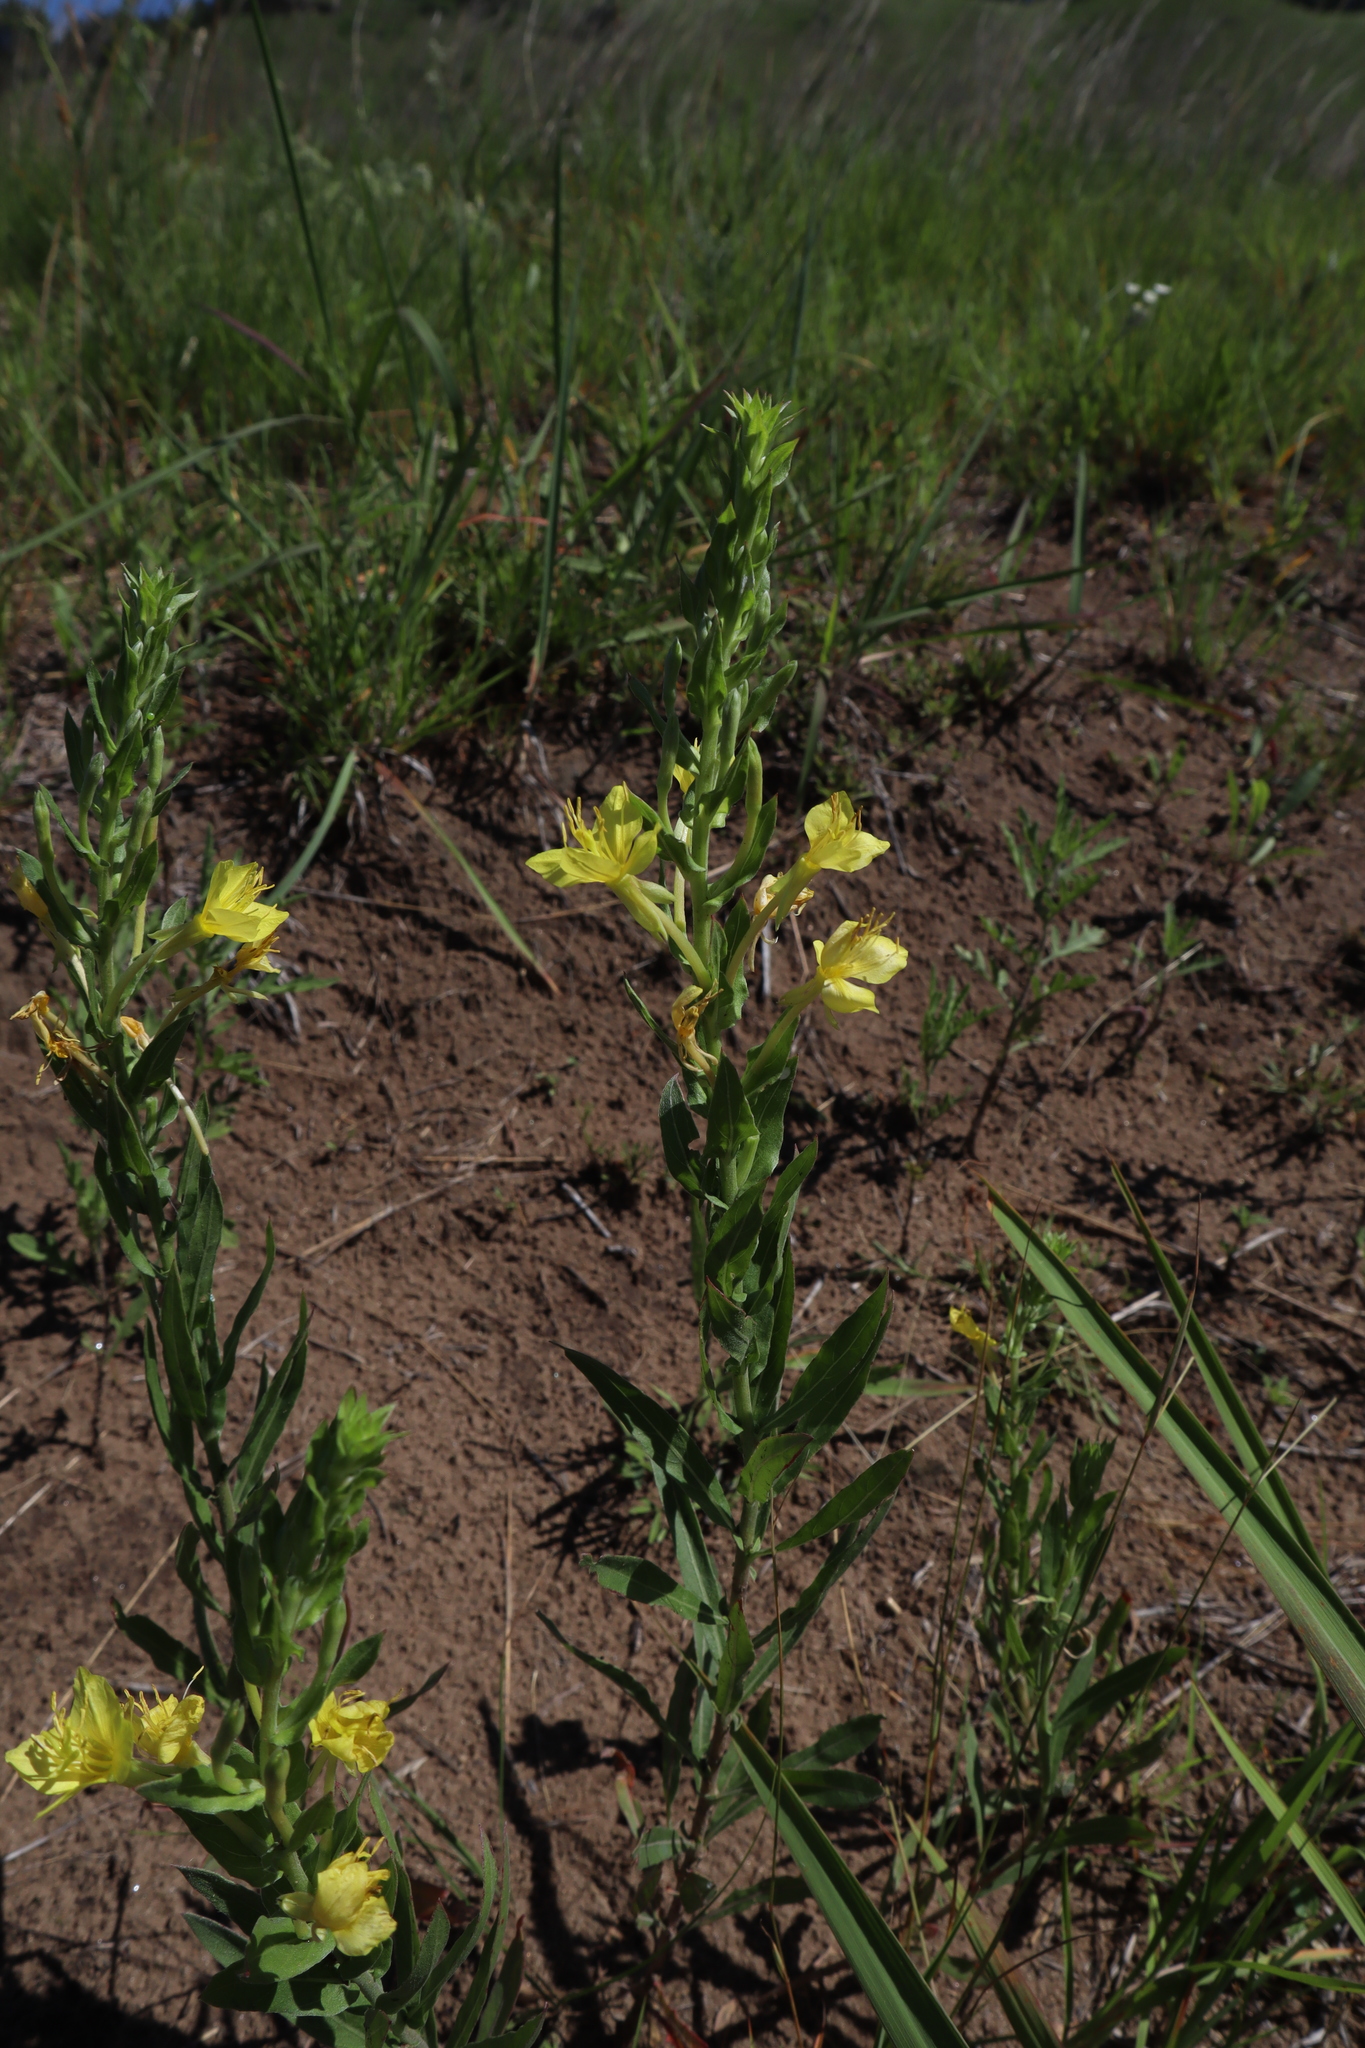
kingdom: Plantae
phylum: Tracheophyta
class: Magnoliopsida
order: Myrtales
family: Onagraceae
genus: Oenothera
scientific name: Oenothera clelandii
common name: Cleland's evening-primrose
